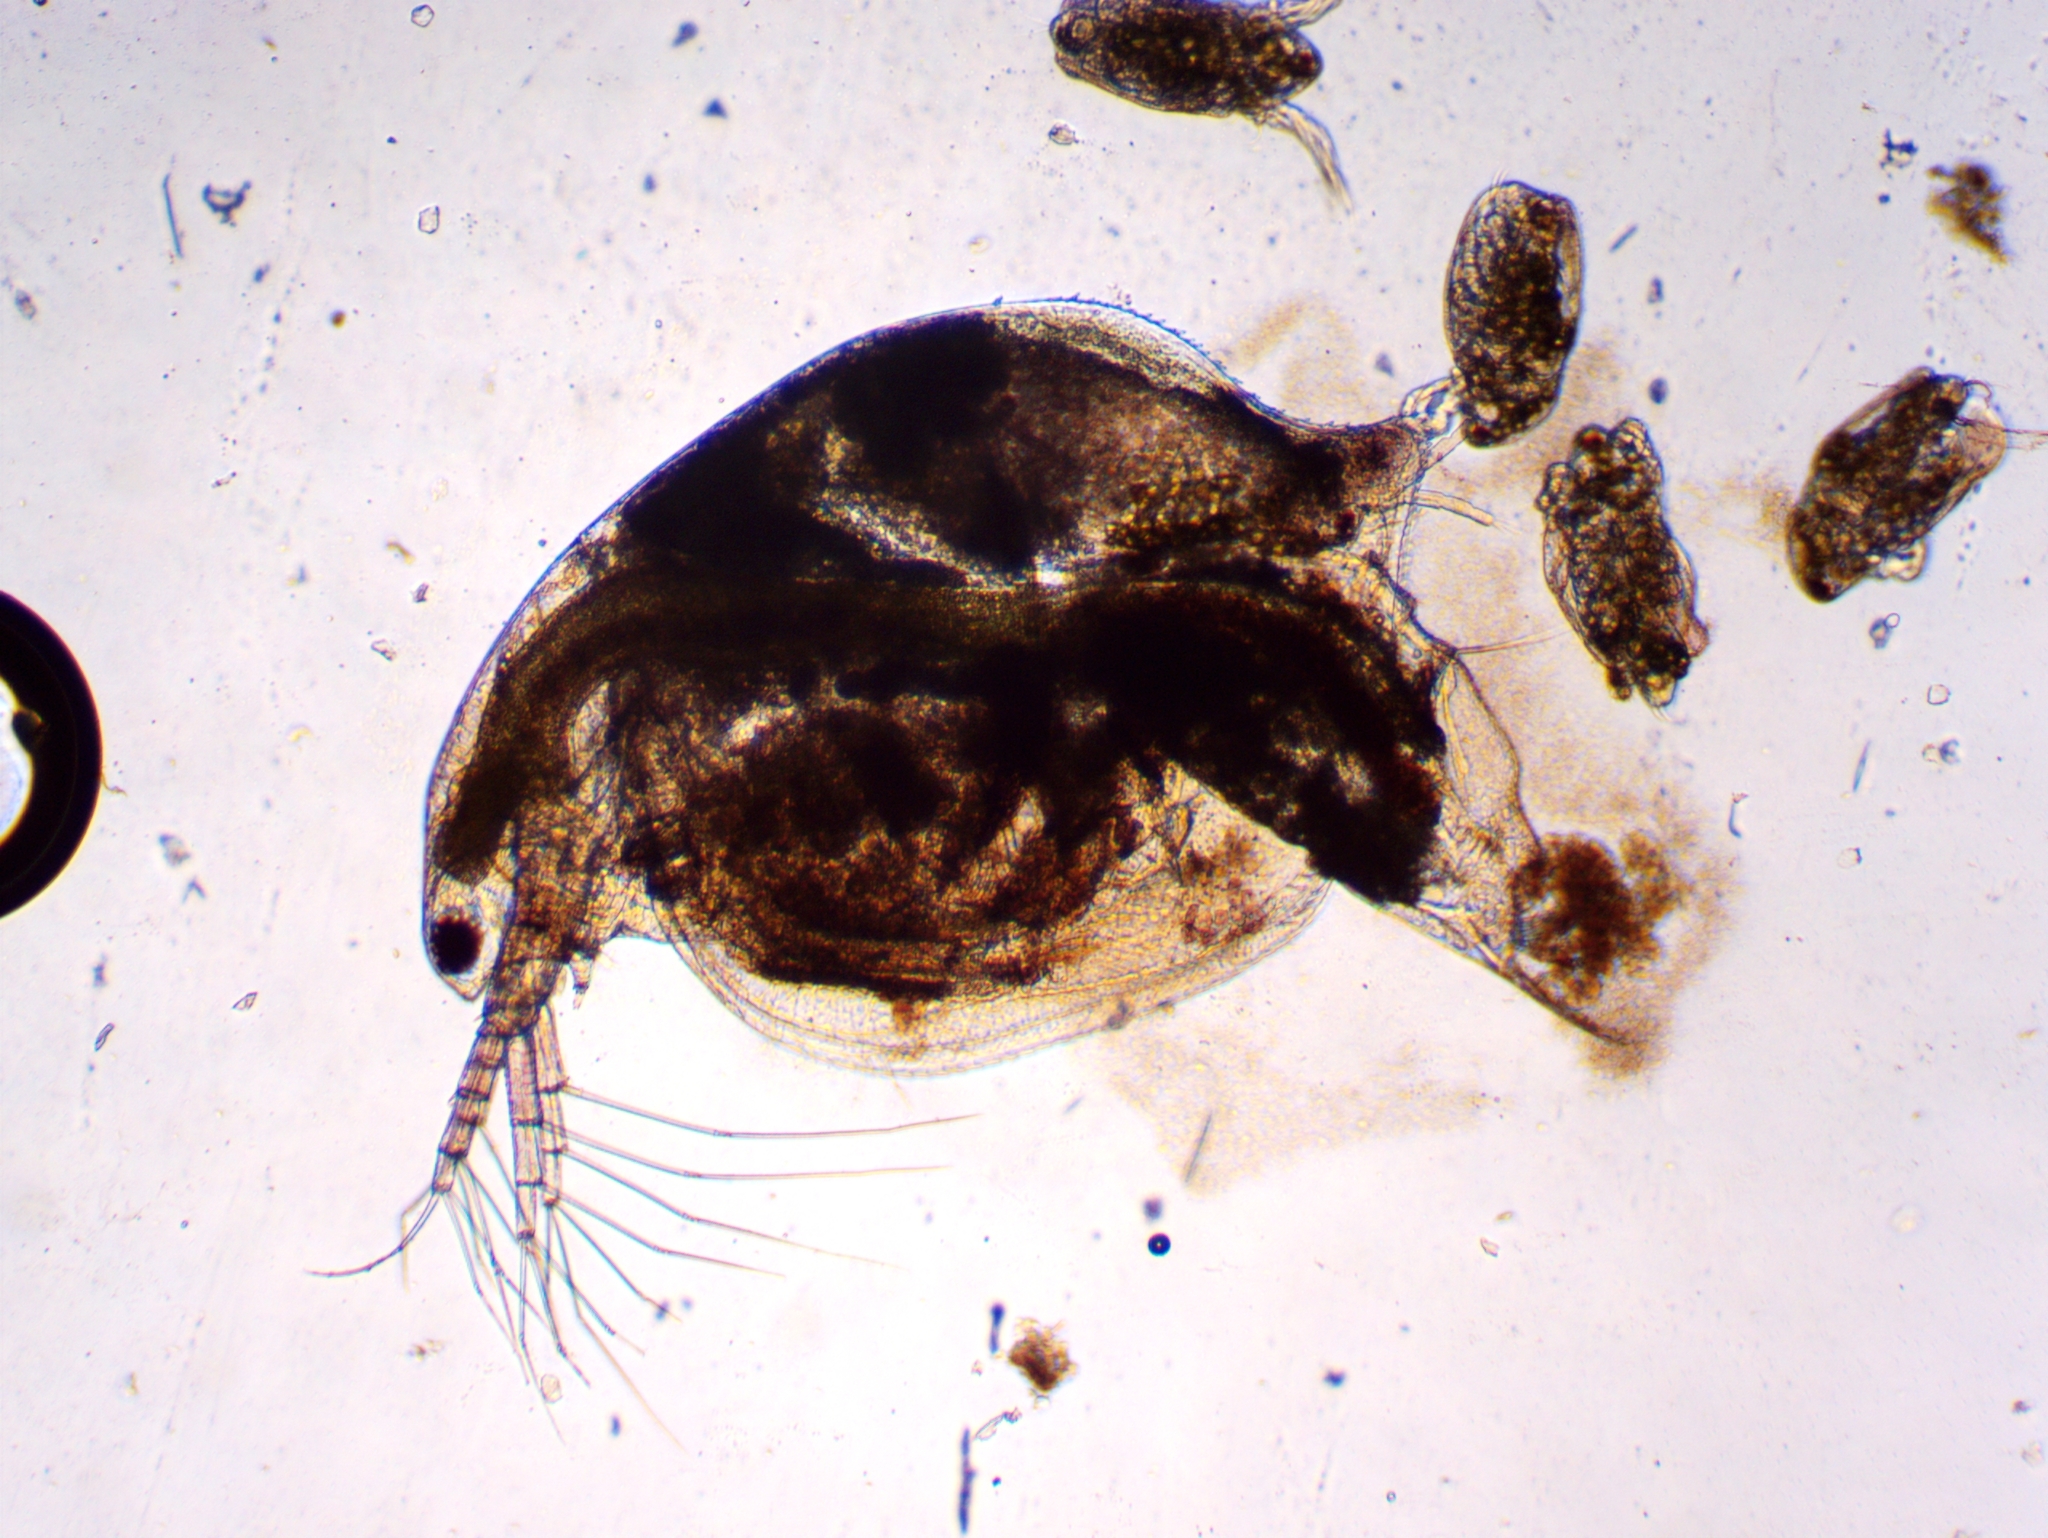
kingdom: Animalia
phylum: Arthropoda
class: Branchiopoda
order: Diplostraca
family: Daphniidae
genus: Simocephalus
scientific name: Simocephalus serrulatus
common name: Water flea
